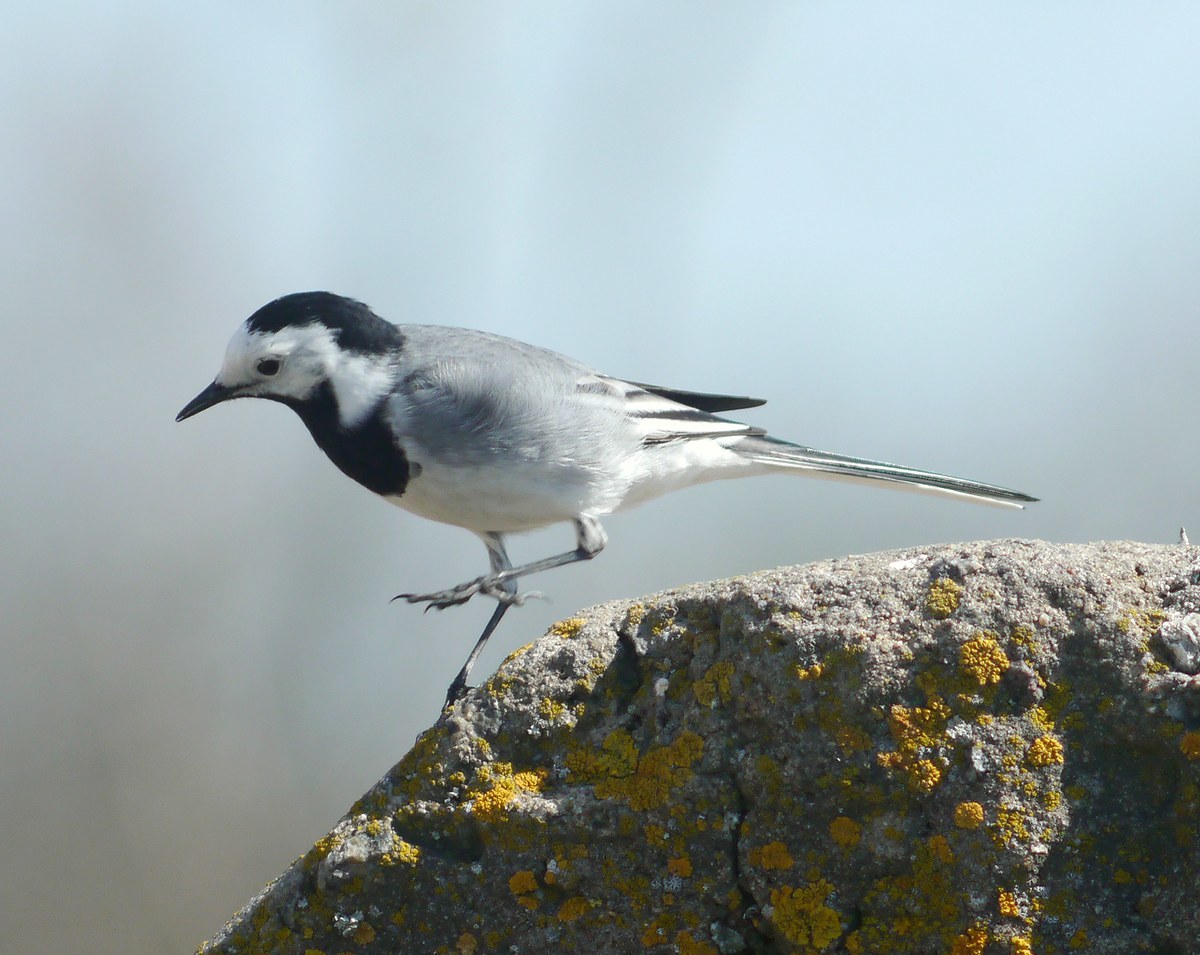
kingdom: Animalia
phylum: Chordata
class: Aves
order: Passeriformes
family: Motacillidae
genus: Motacilla
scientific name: Motacilla alba
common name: White wagtail
